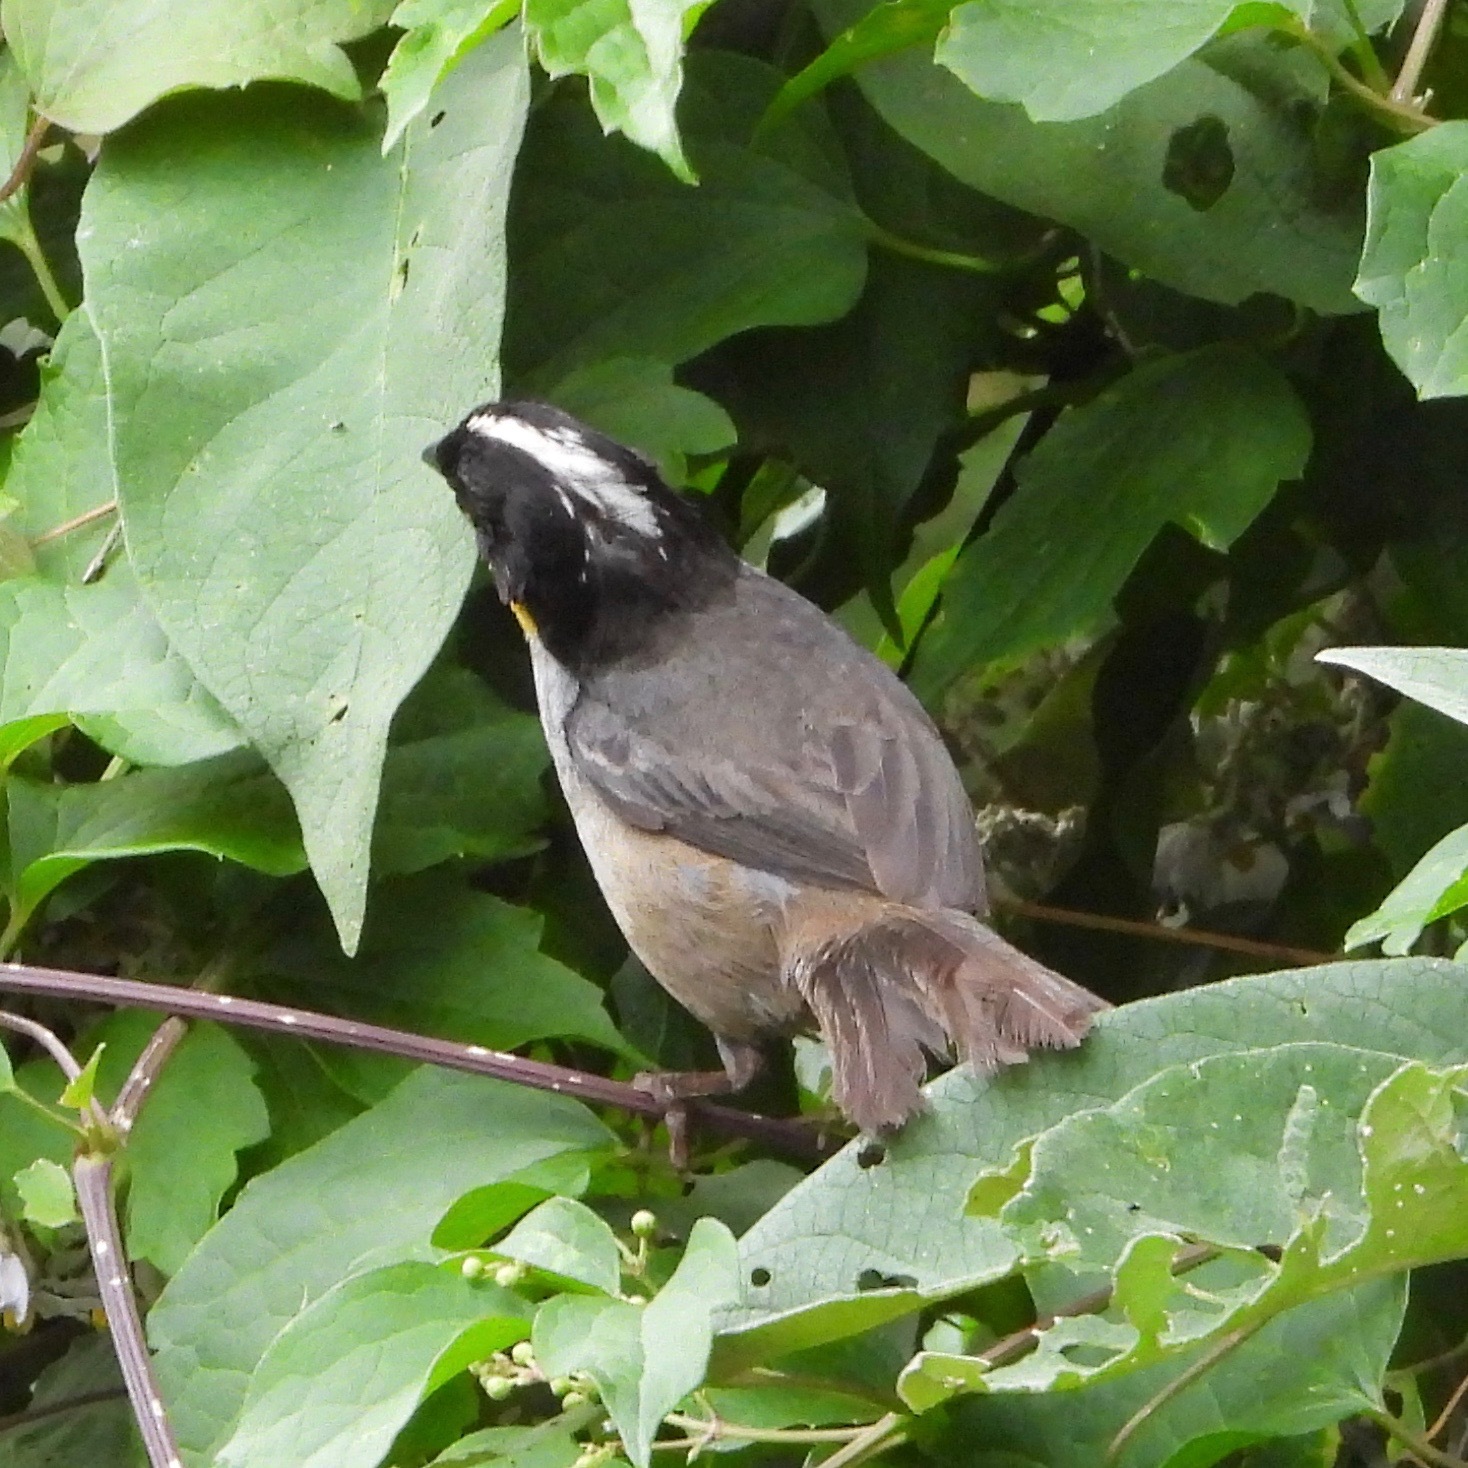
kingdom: Animalia
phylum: Chordata
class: Aves
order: Passeriformes
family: Passerellidae
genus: Atlapetes
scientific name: Atlapetes albinucha
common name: White-naped brush-finch
